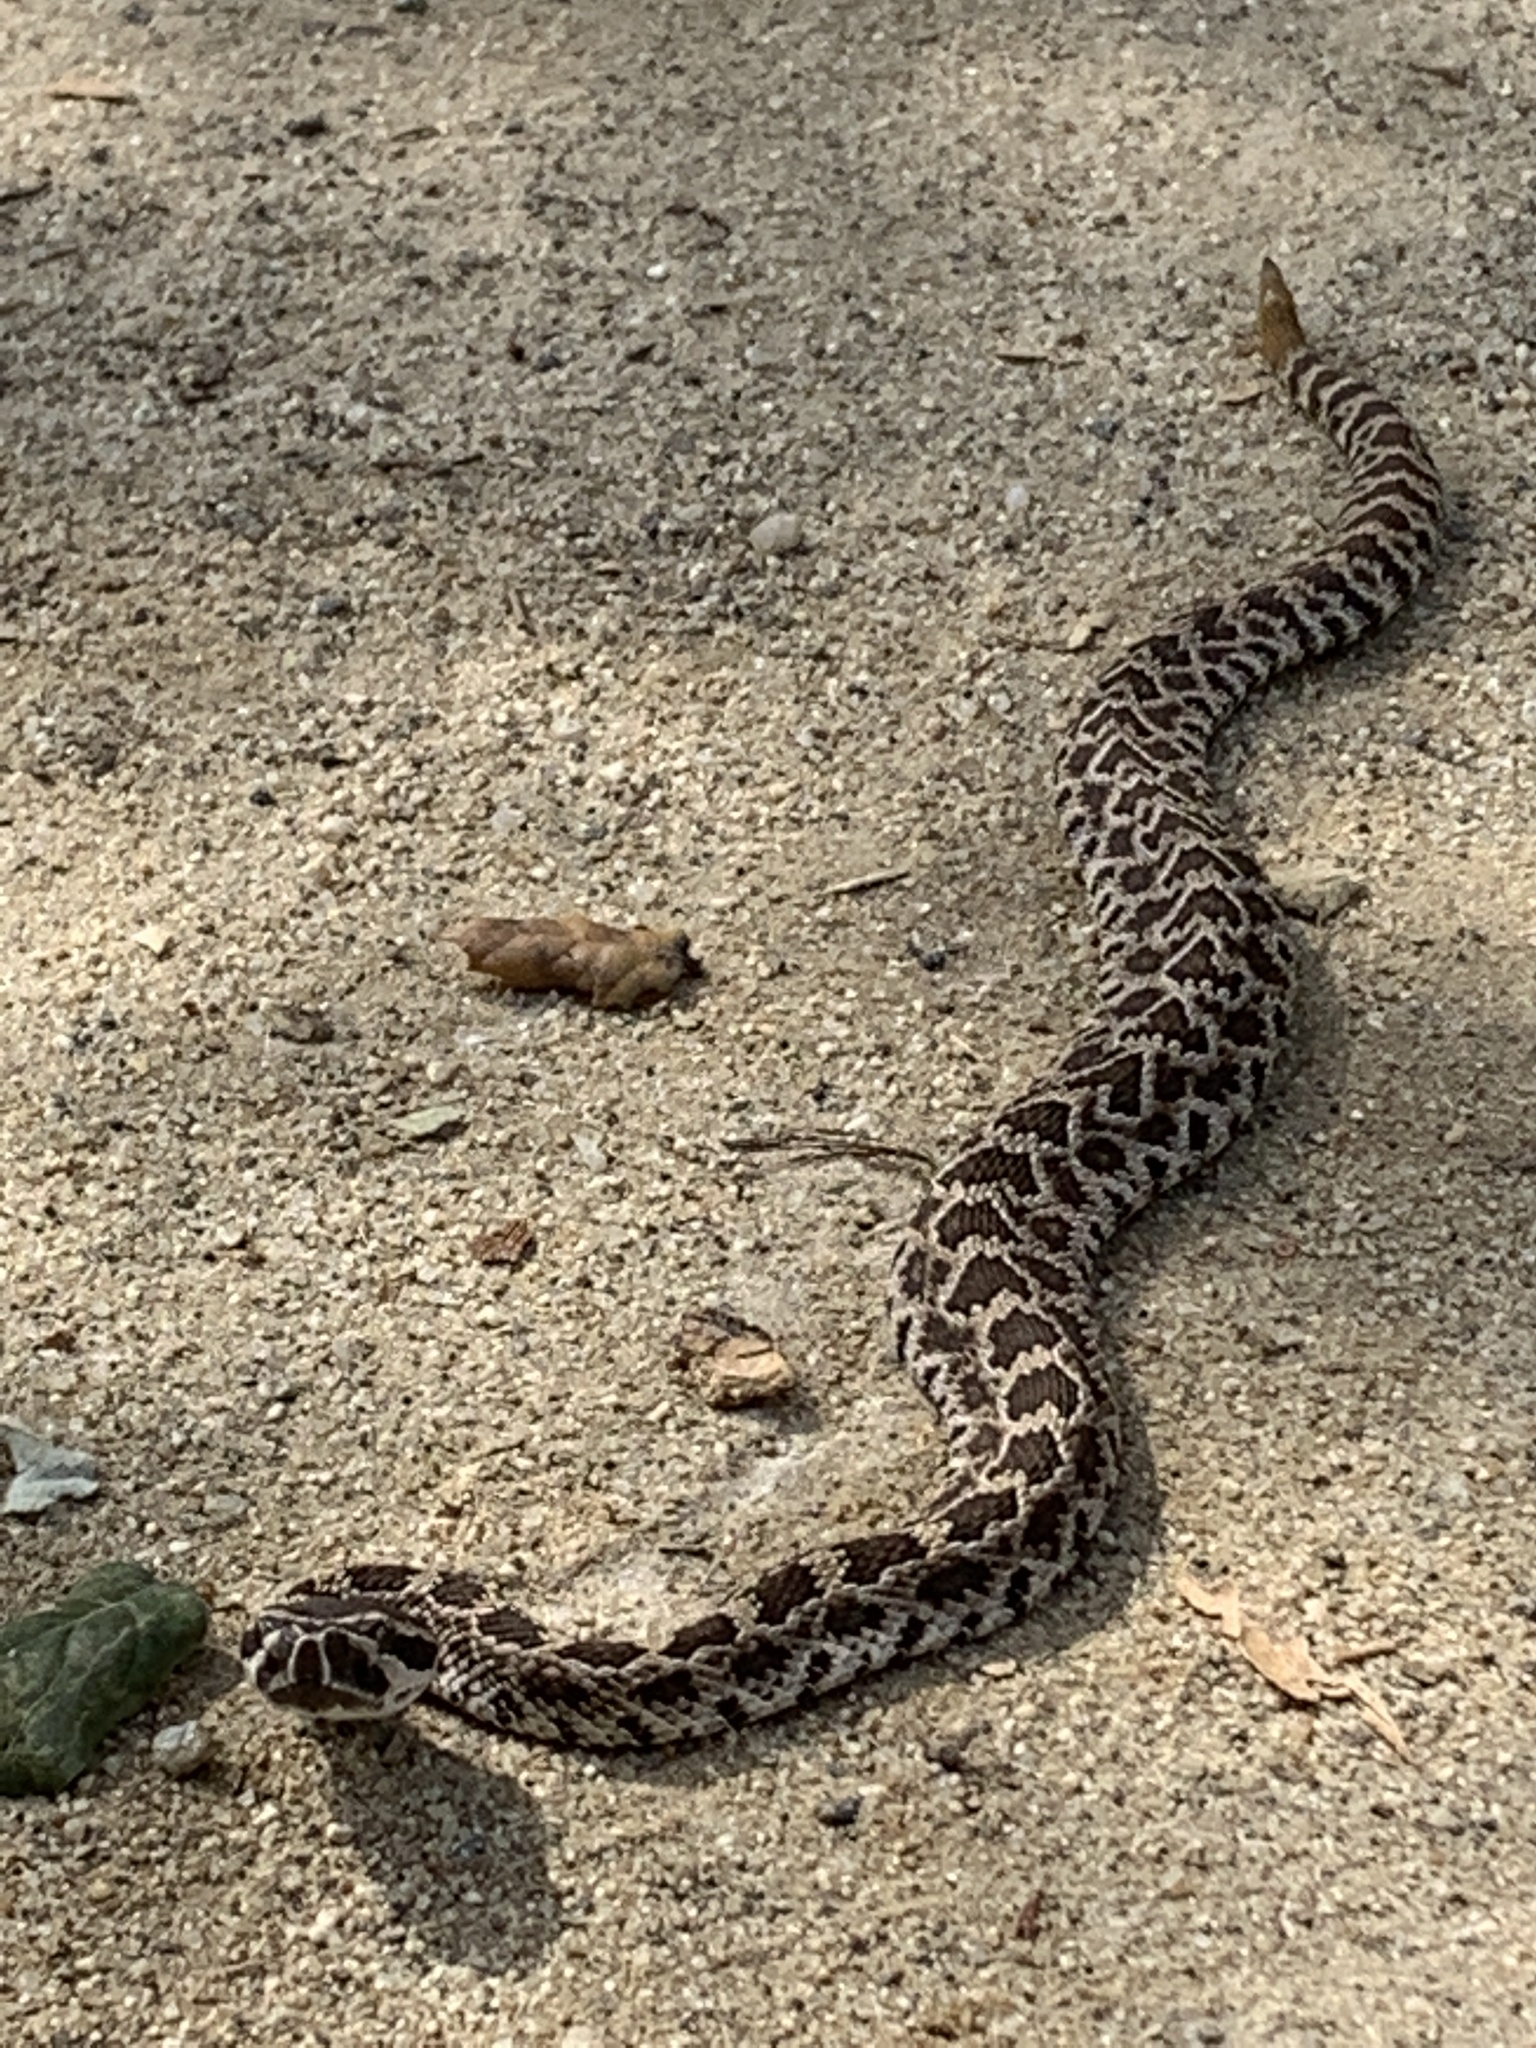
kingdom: Animalia
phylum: Chordata
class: Squamata
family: Viperidae
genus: Crotalus
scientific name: Crotalus oreganus
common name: Abyssus
